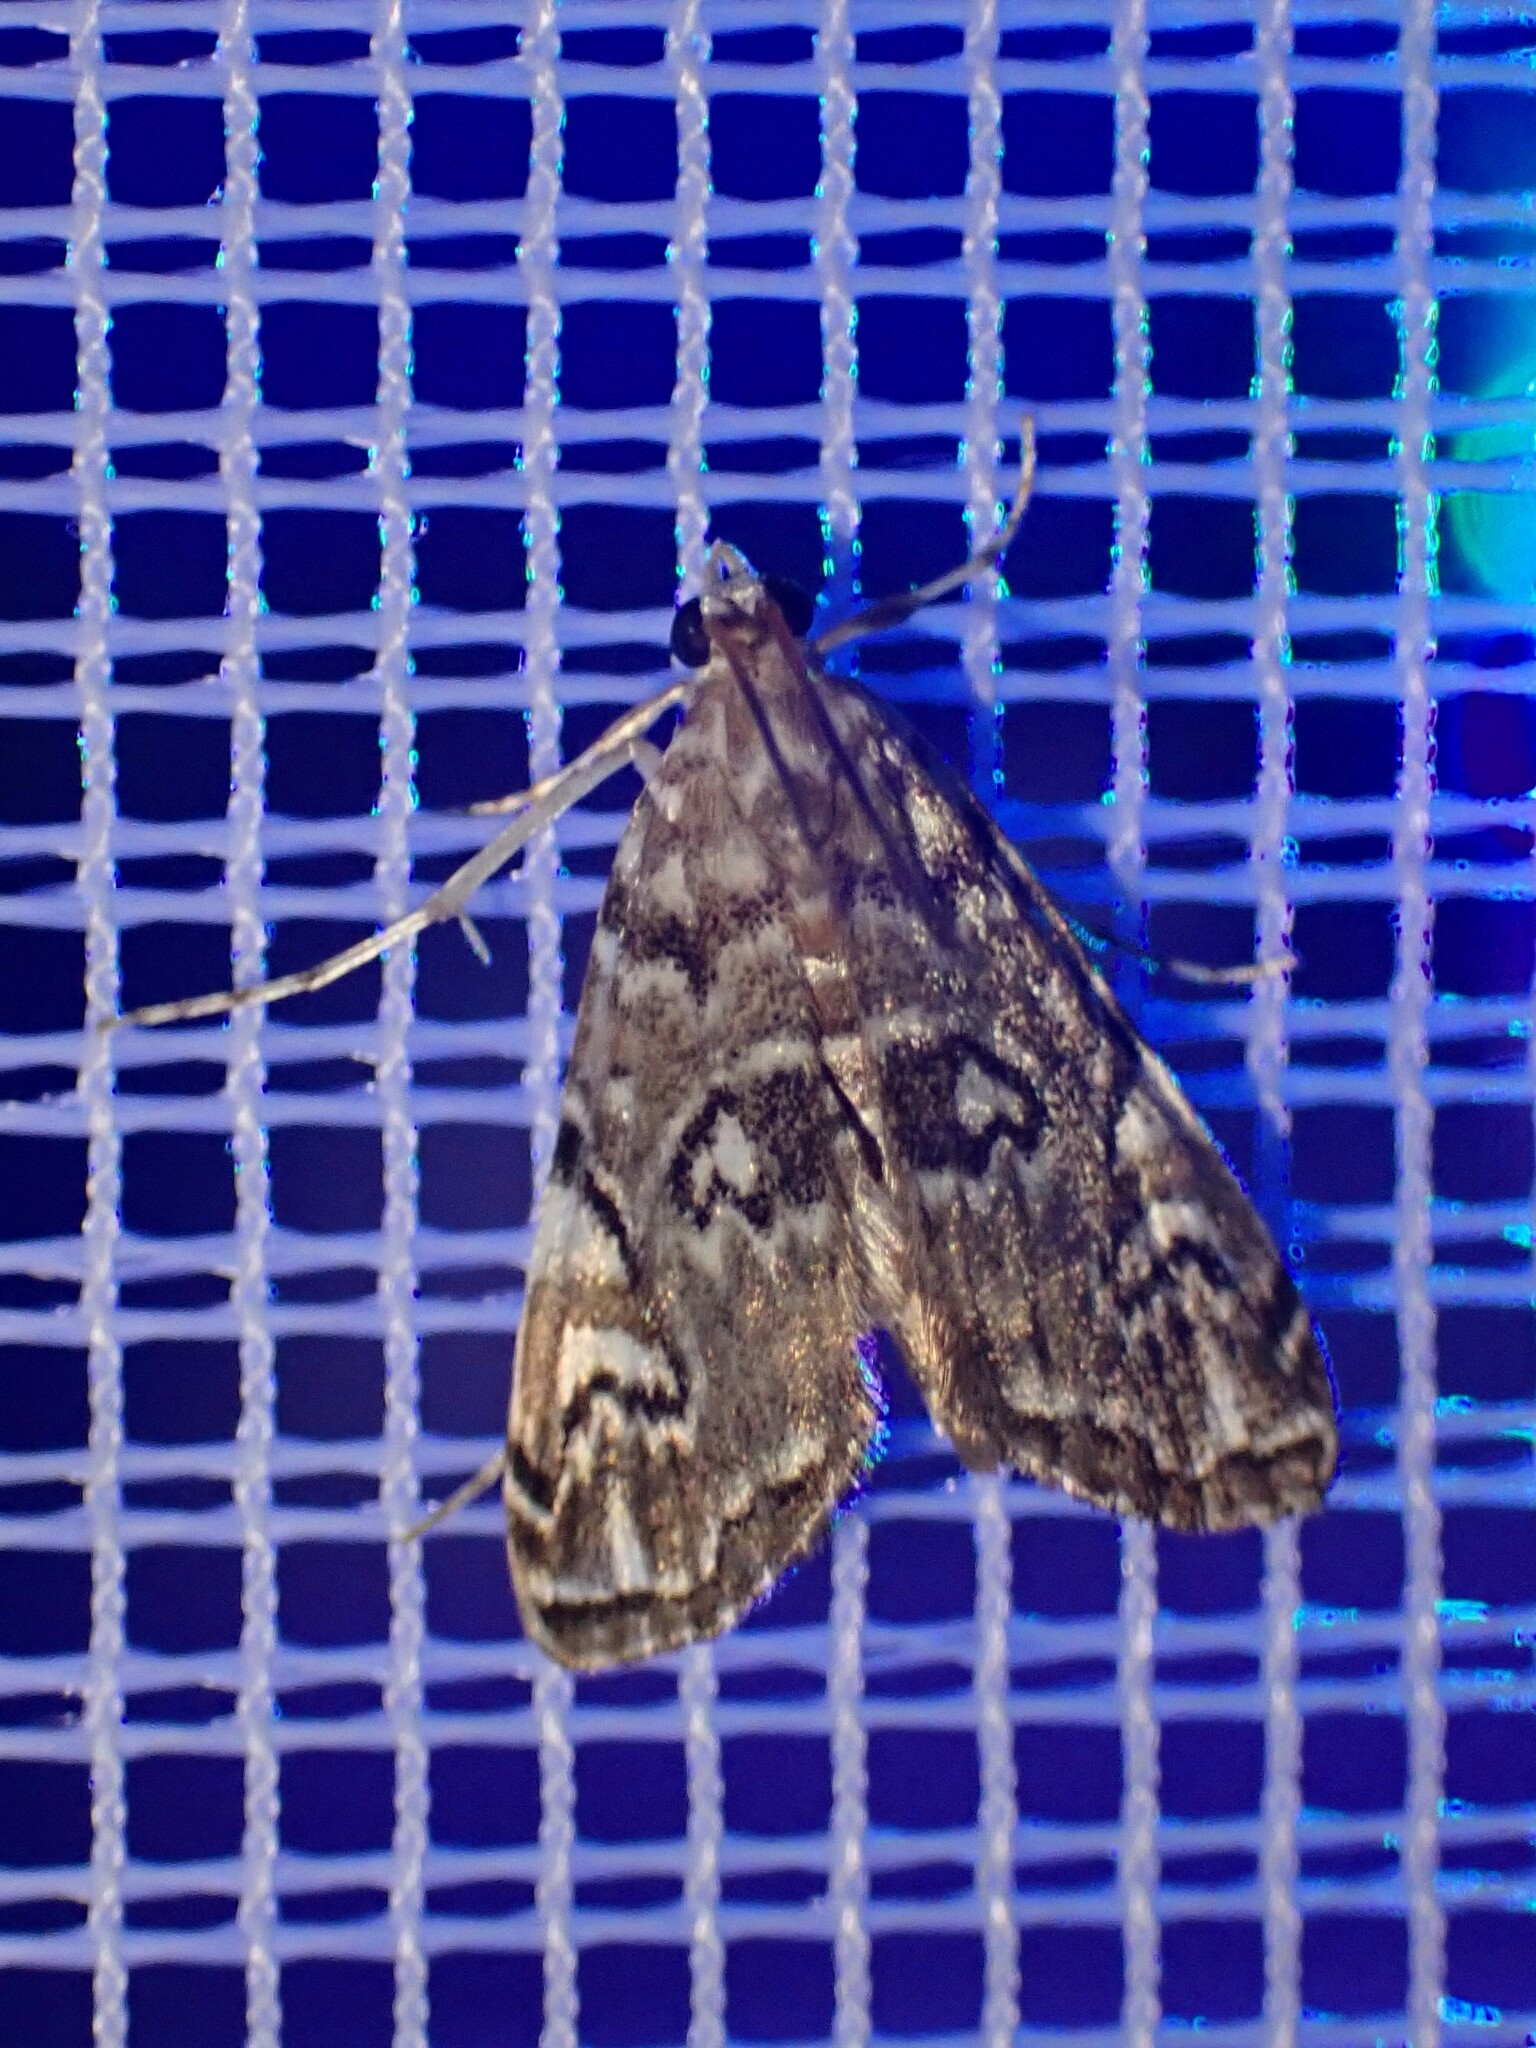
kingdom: Animalia
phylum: Arthropoda
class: Insecta
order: Lepidoptera
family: Crambidae
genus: Elophila
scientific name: Elophila gyralis
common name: Waterlily borer moth
